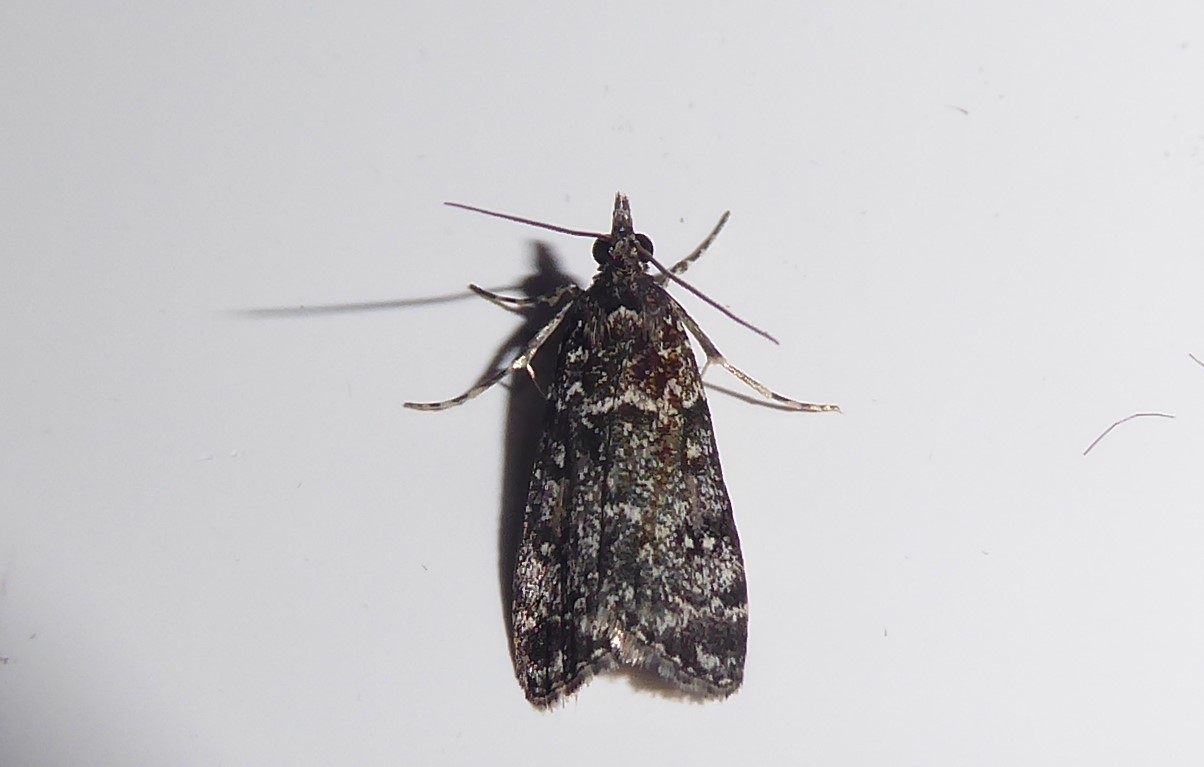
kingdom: Animalia
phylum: Arthropoda
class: Insecta
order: Lepidoptera
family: Crambidae
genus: Eudonia
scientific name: Eudonia philerga
